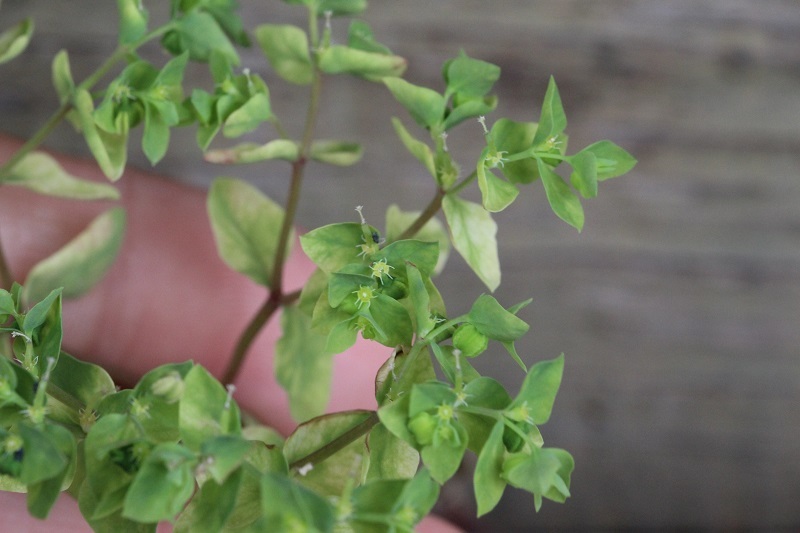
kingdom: Plantae
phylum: Tracheophyta
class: Magnoliopsida
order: Malpighiales
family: Euphorbiaceae
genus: Euphorbia
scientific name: Euphorbia peplus
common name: Petty spurge
